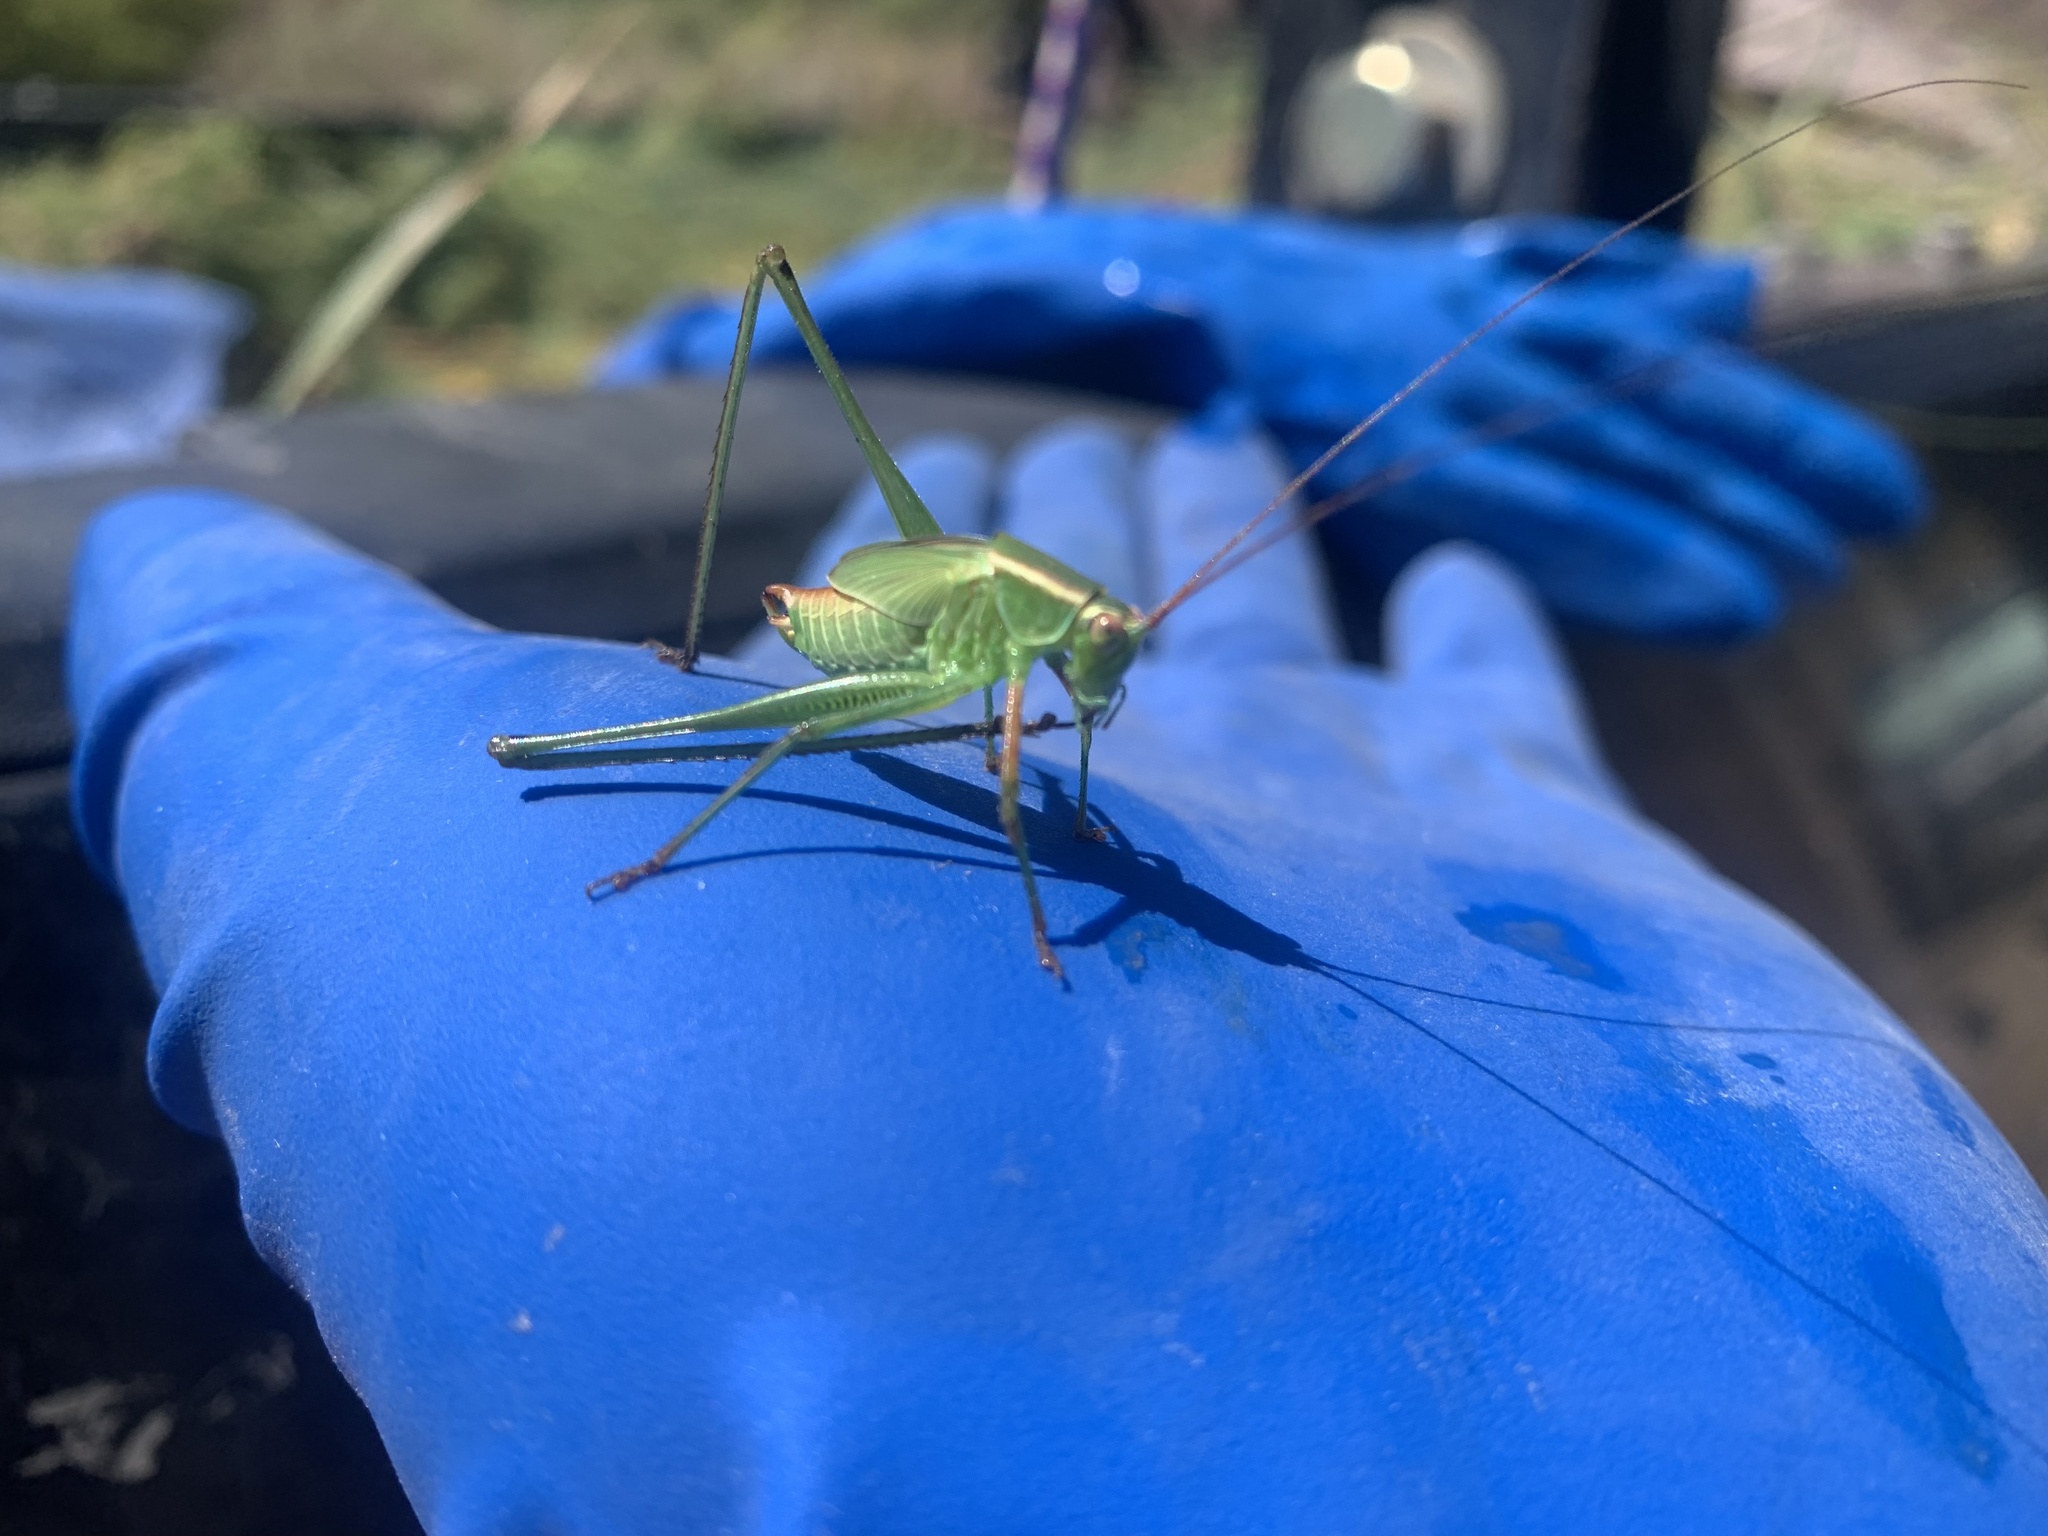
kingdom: Animalia
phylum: Arthropoda
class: Insecta
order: Orthoptera
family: Tettigoniidae
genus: Scudderia
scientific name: Scudderia
